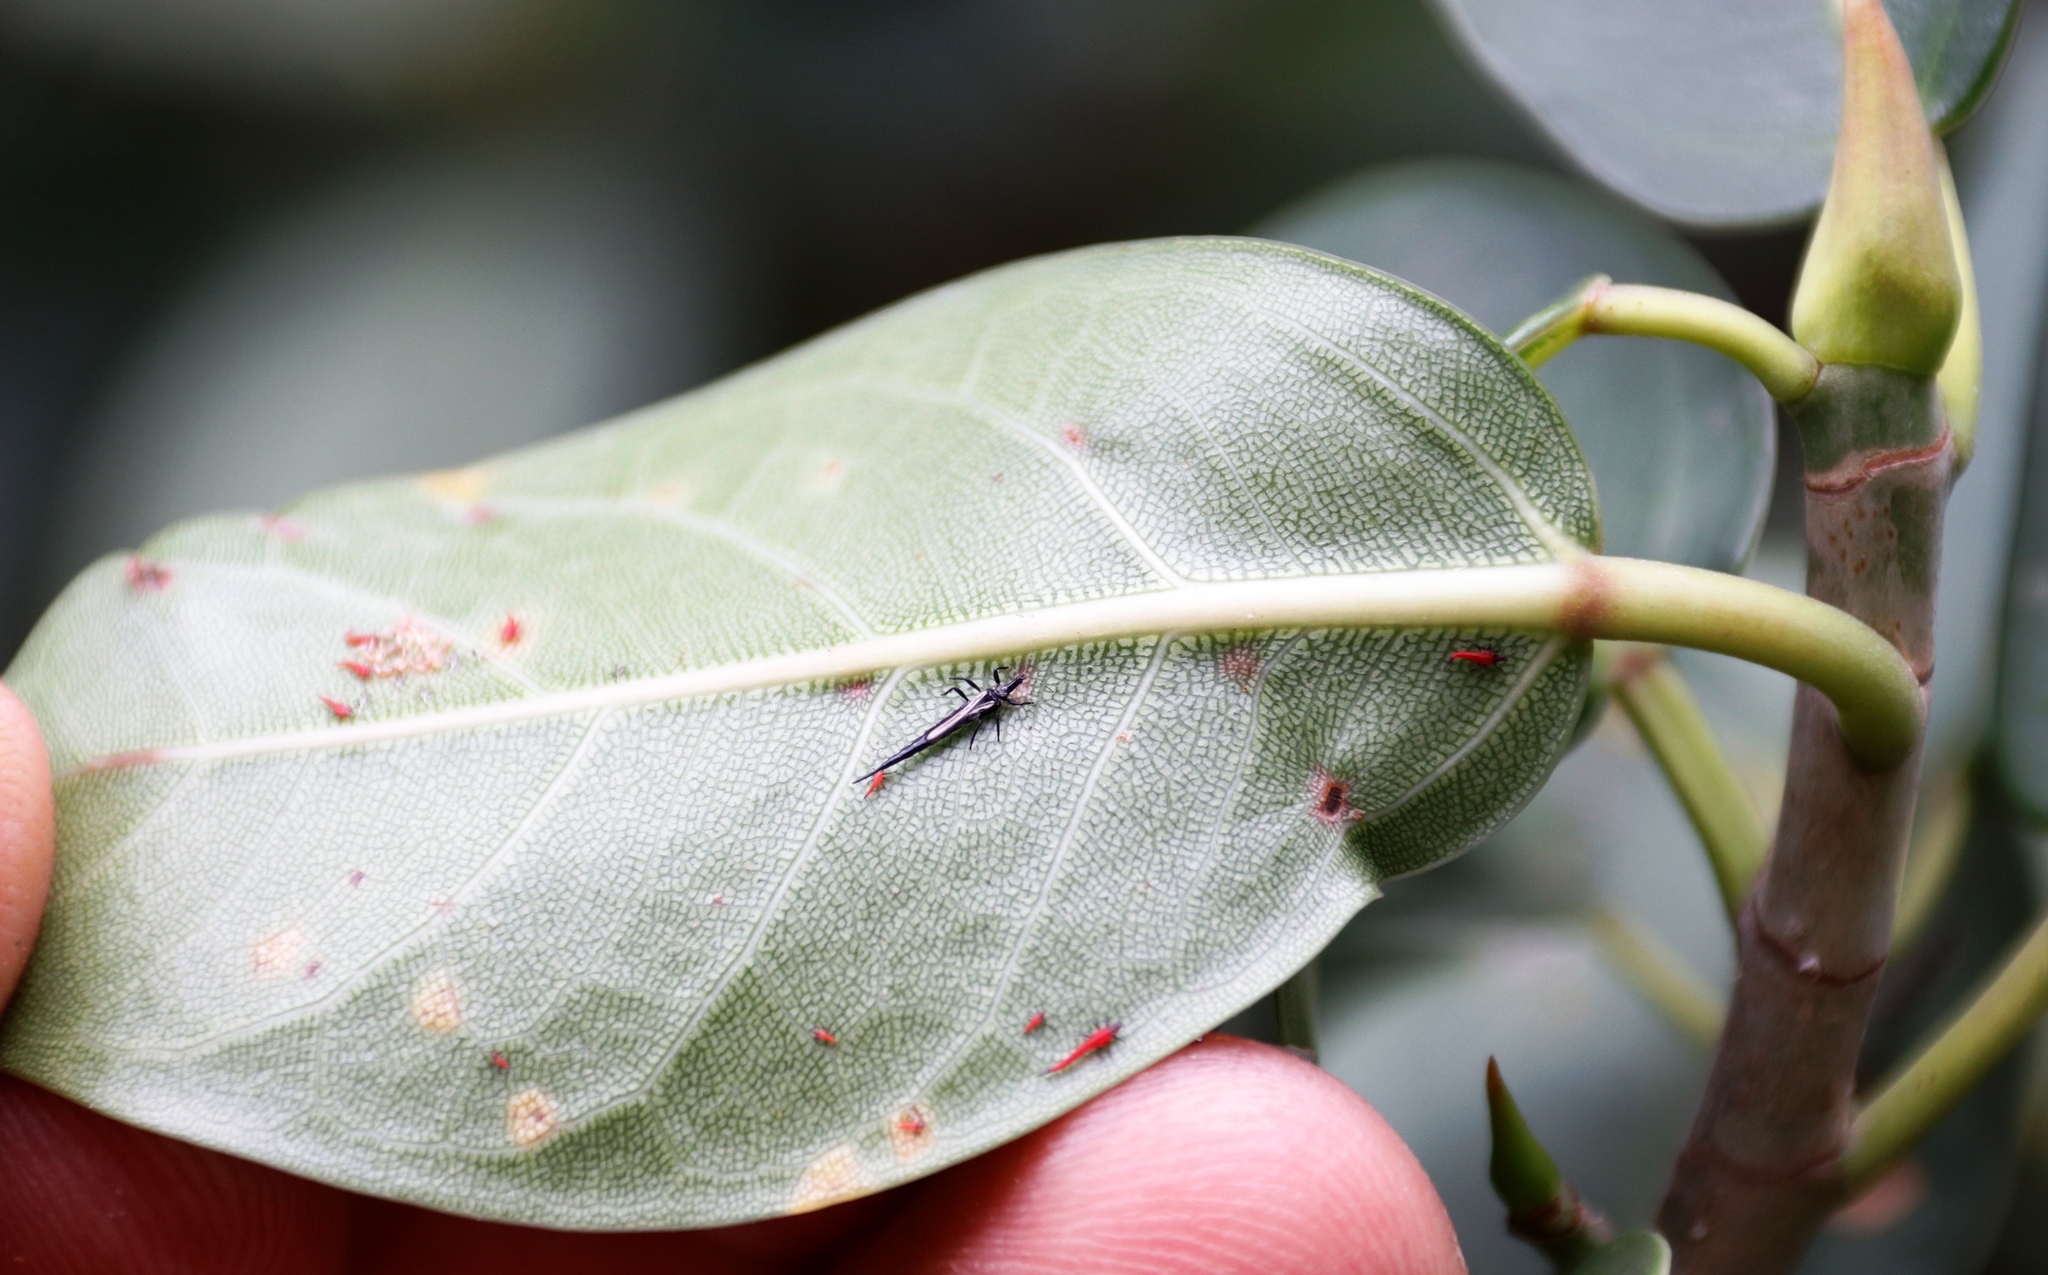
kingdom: Plantae
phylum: Tracheophyta
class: Magnoliopsida
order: Rosales
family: Moraceae
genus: Ficus
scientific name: Ficus sur
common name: Cape fig
